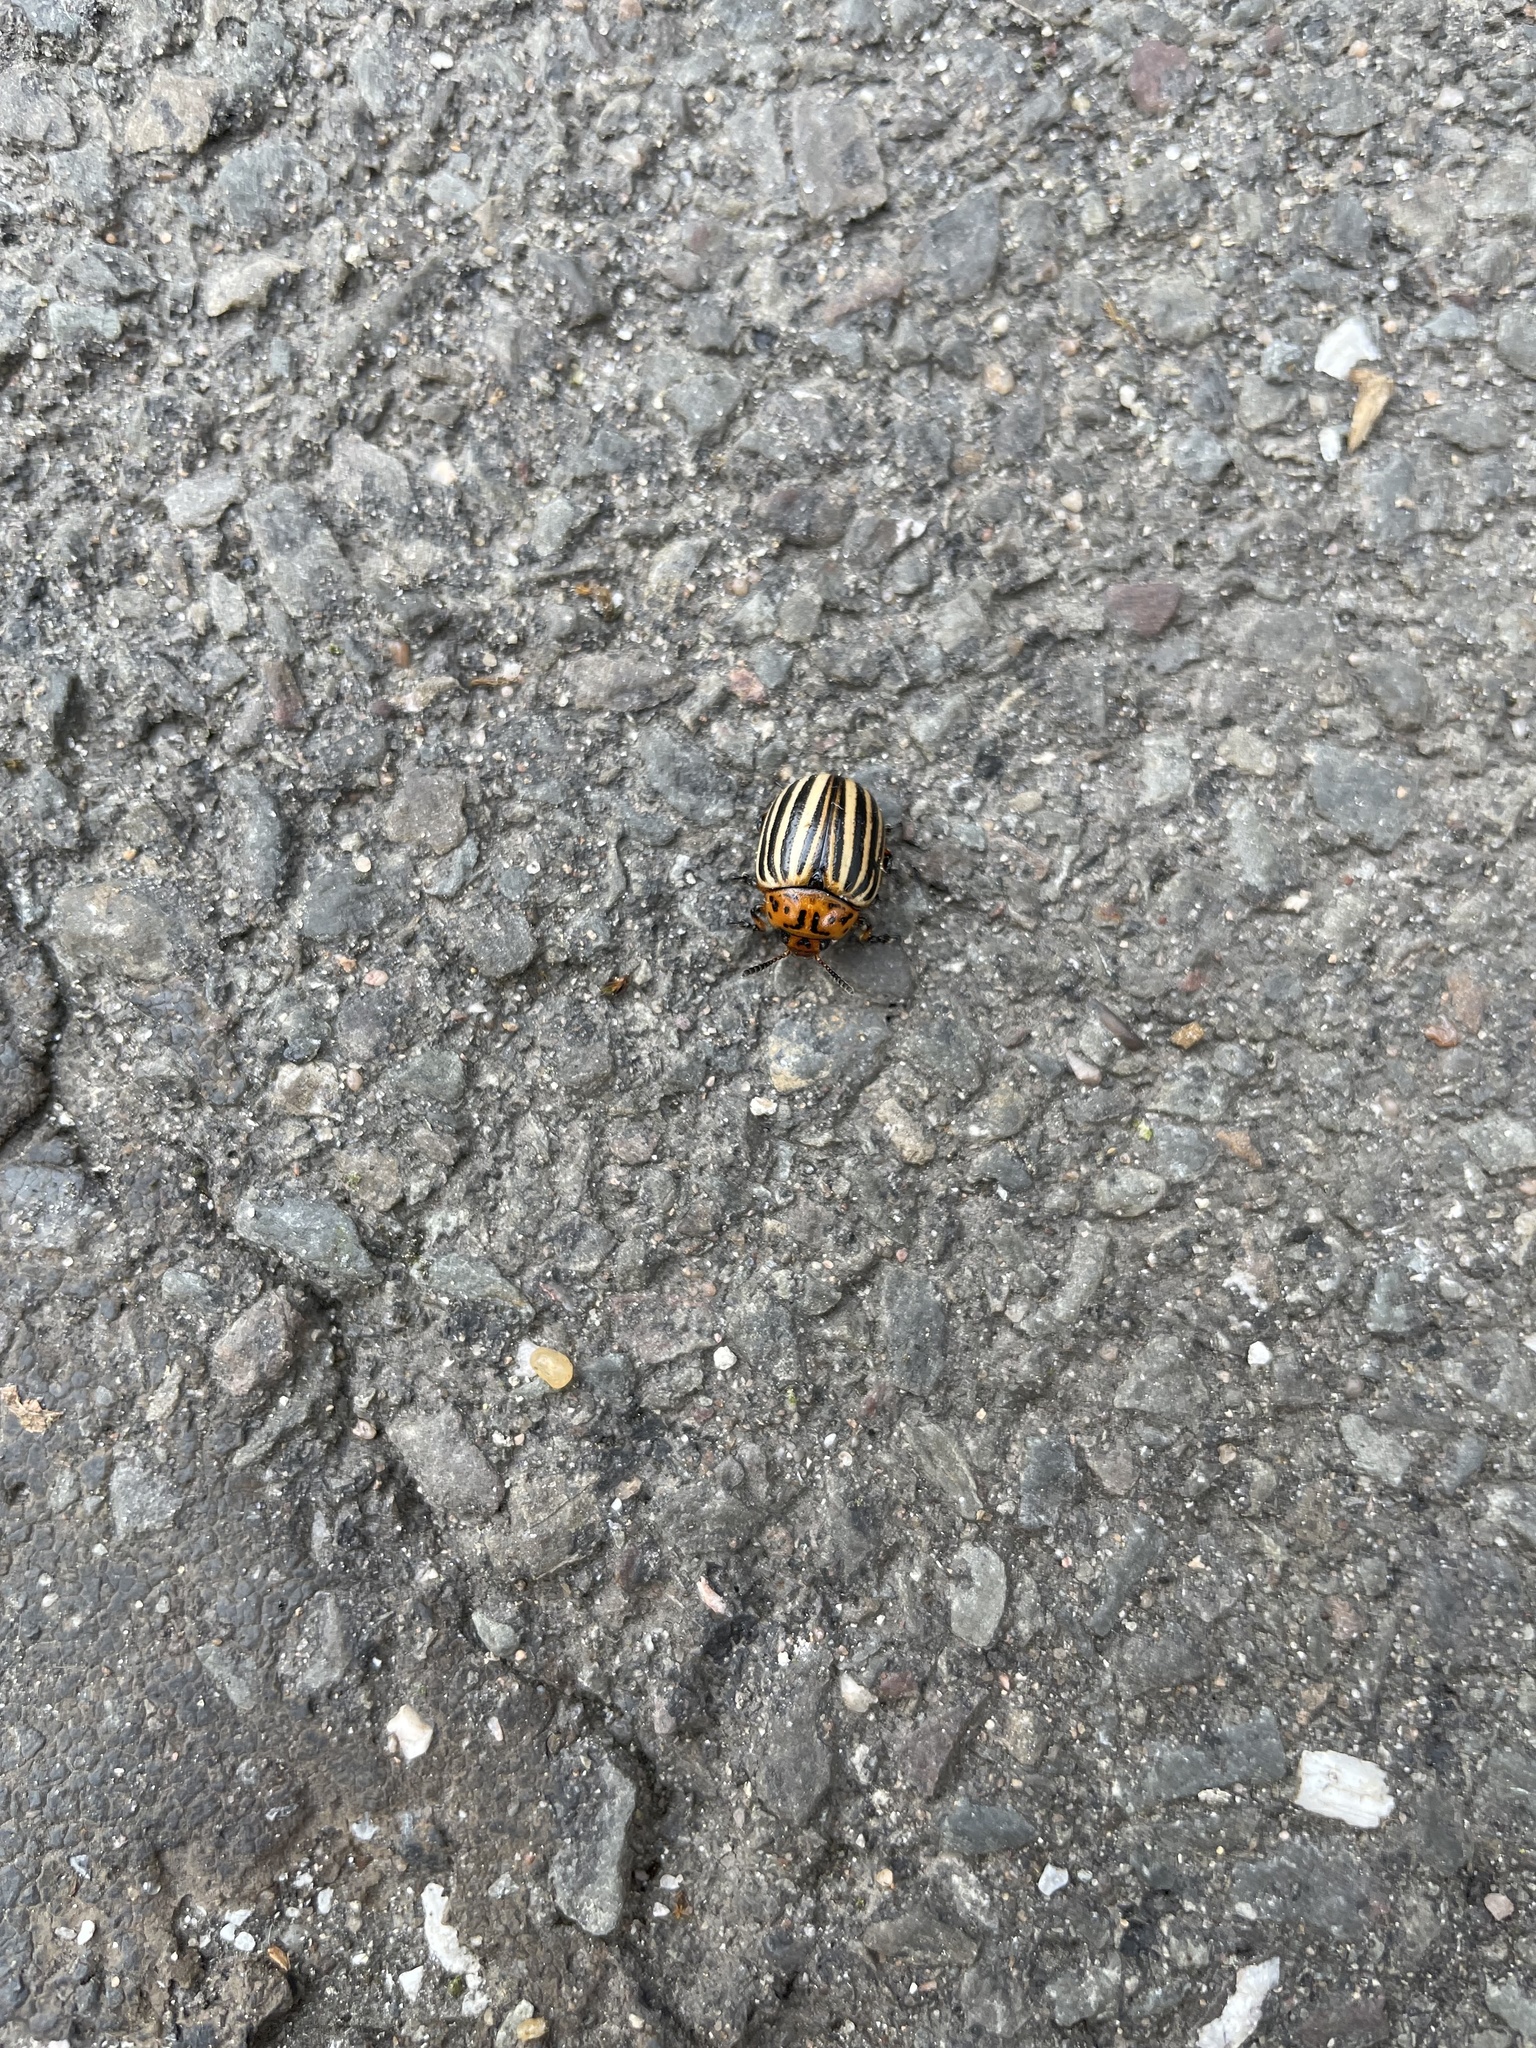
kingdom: Animalia
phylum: Arthropoda
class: Insecta
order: Coleoptera
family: Chrysomelidae
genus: Leptinotarsa
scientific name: Leptinotarsa decemlineata
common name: Colorado potato beetle
